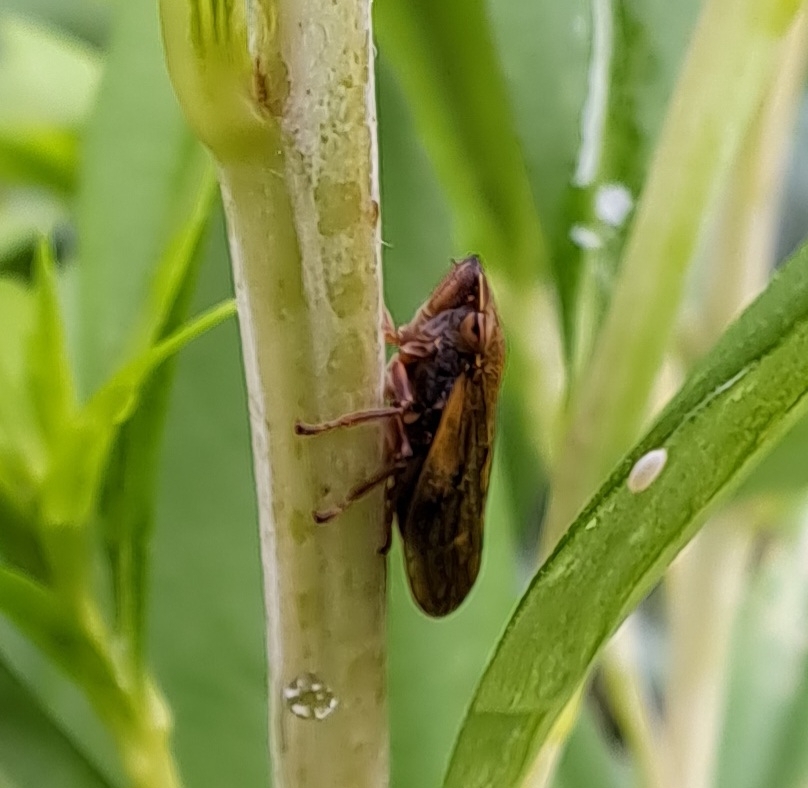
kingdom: Animalia
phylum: Arthropoda
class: Insecta
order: Hemiptera
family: Aphrophoridae
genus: Omalophora
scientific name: Omalophora pectoralis
